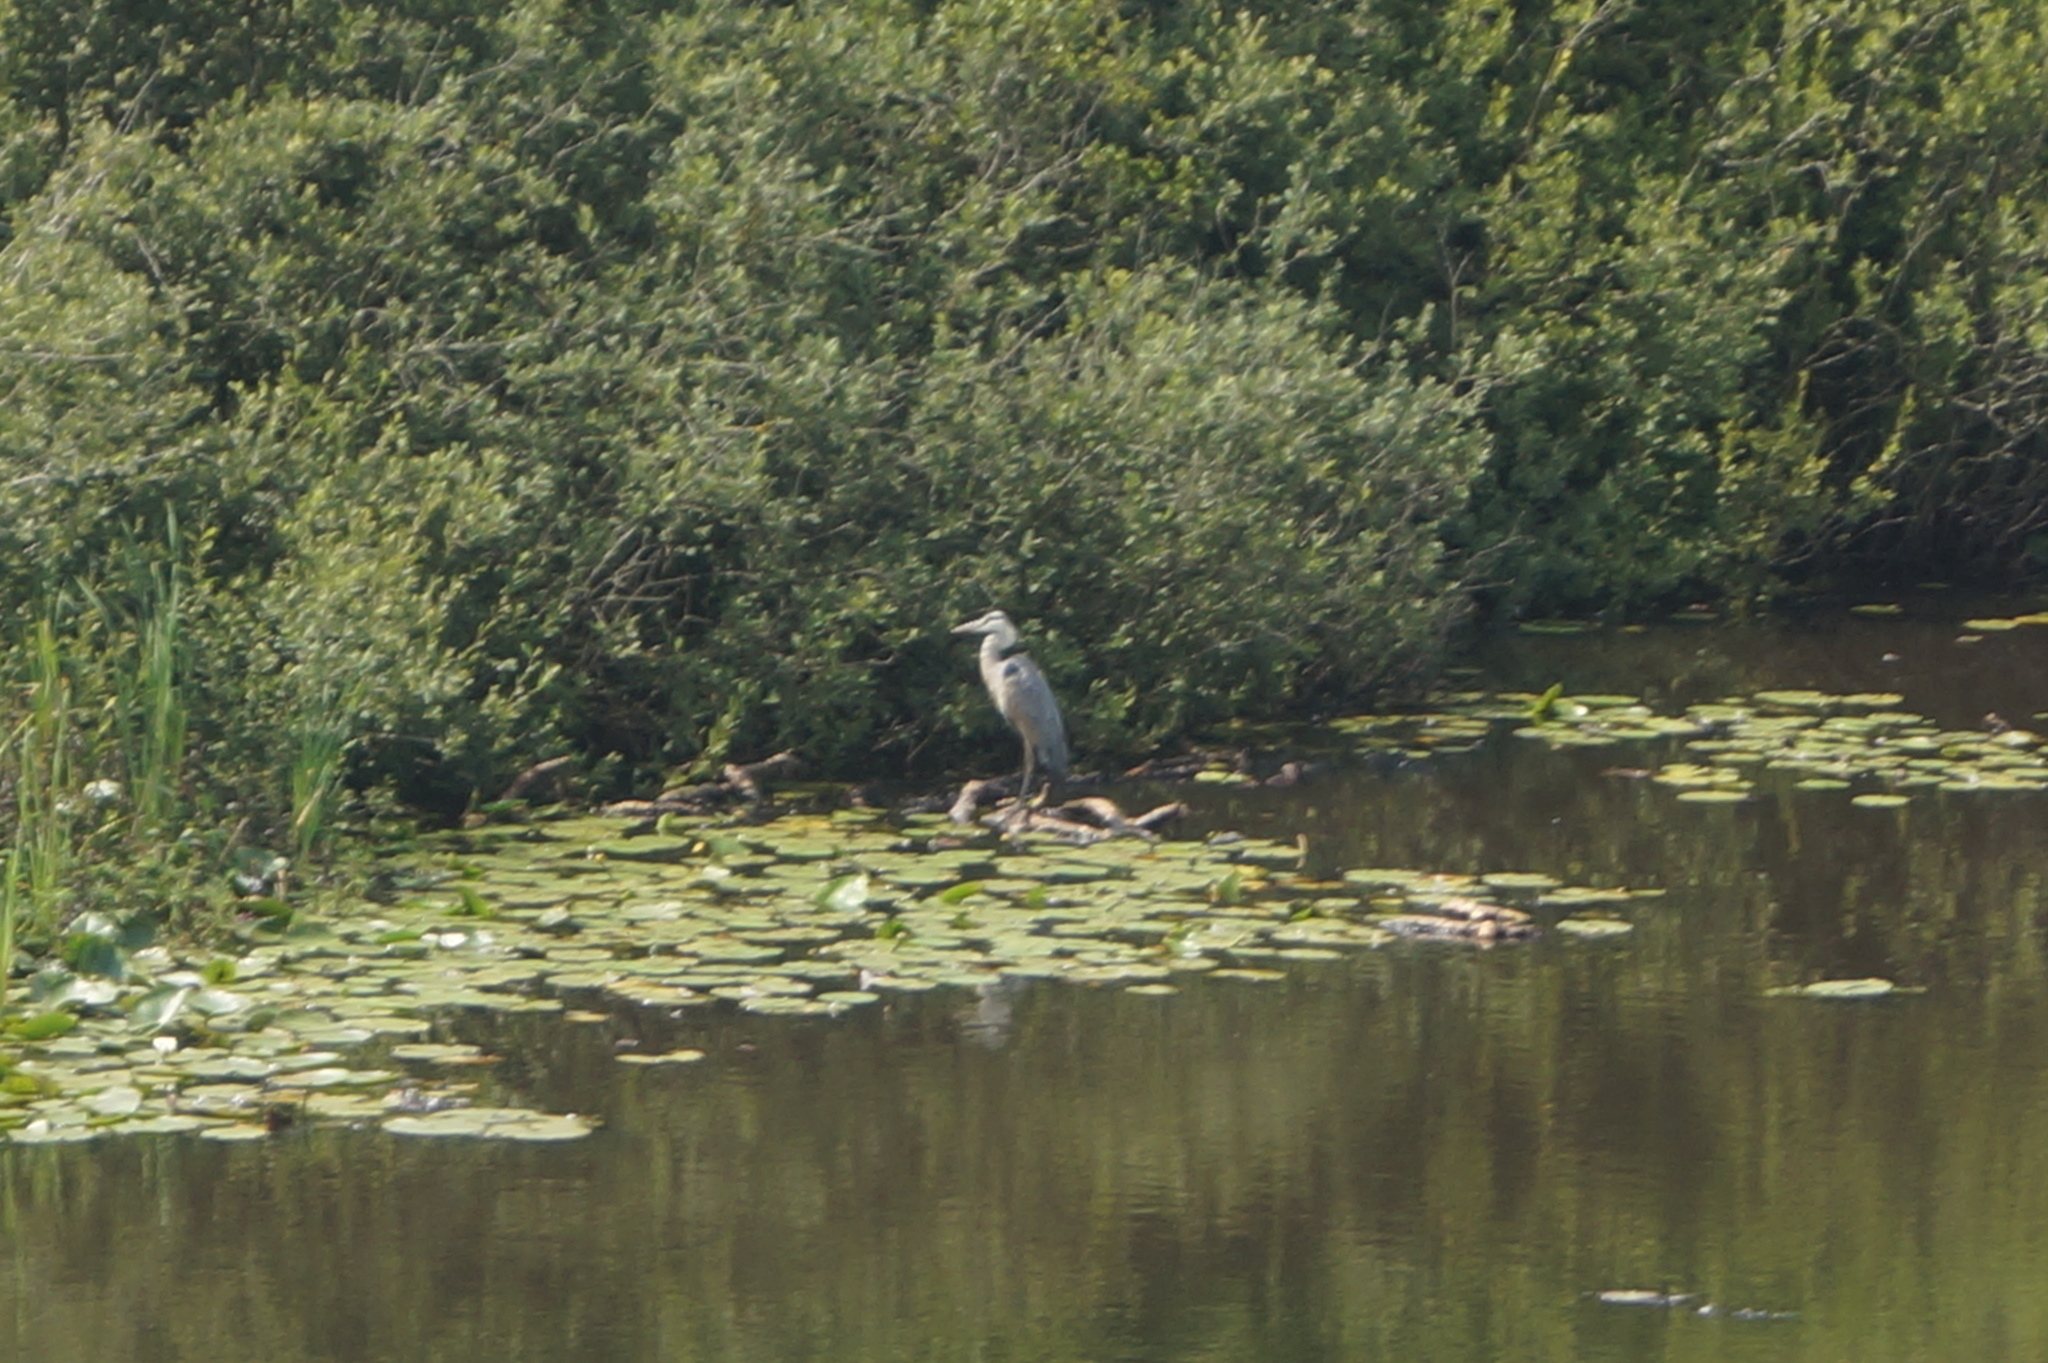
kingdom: Animalia
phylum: Chordata
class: Aves
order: Pelecaniformes
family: Ardeidae
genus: Ardea
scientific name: Ardea cinerea
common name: Grey heron
